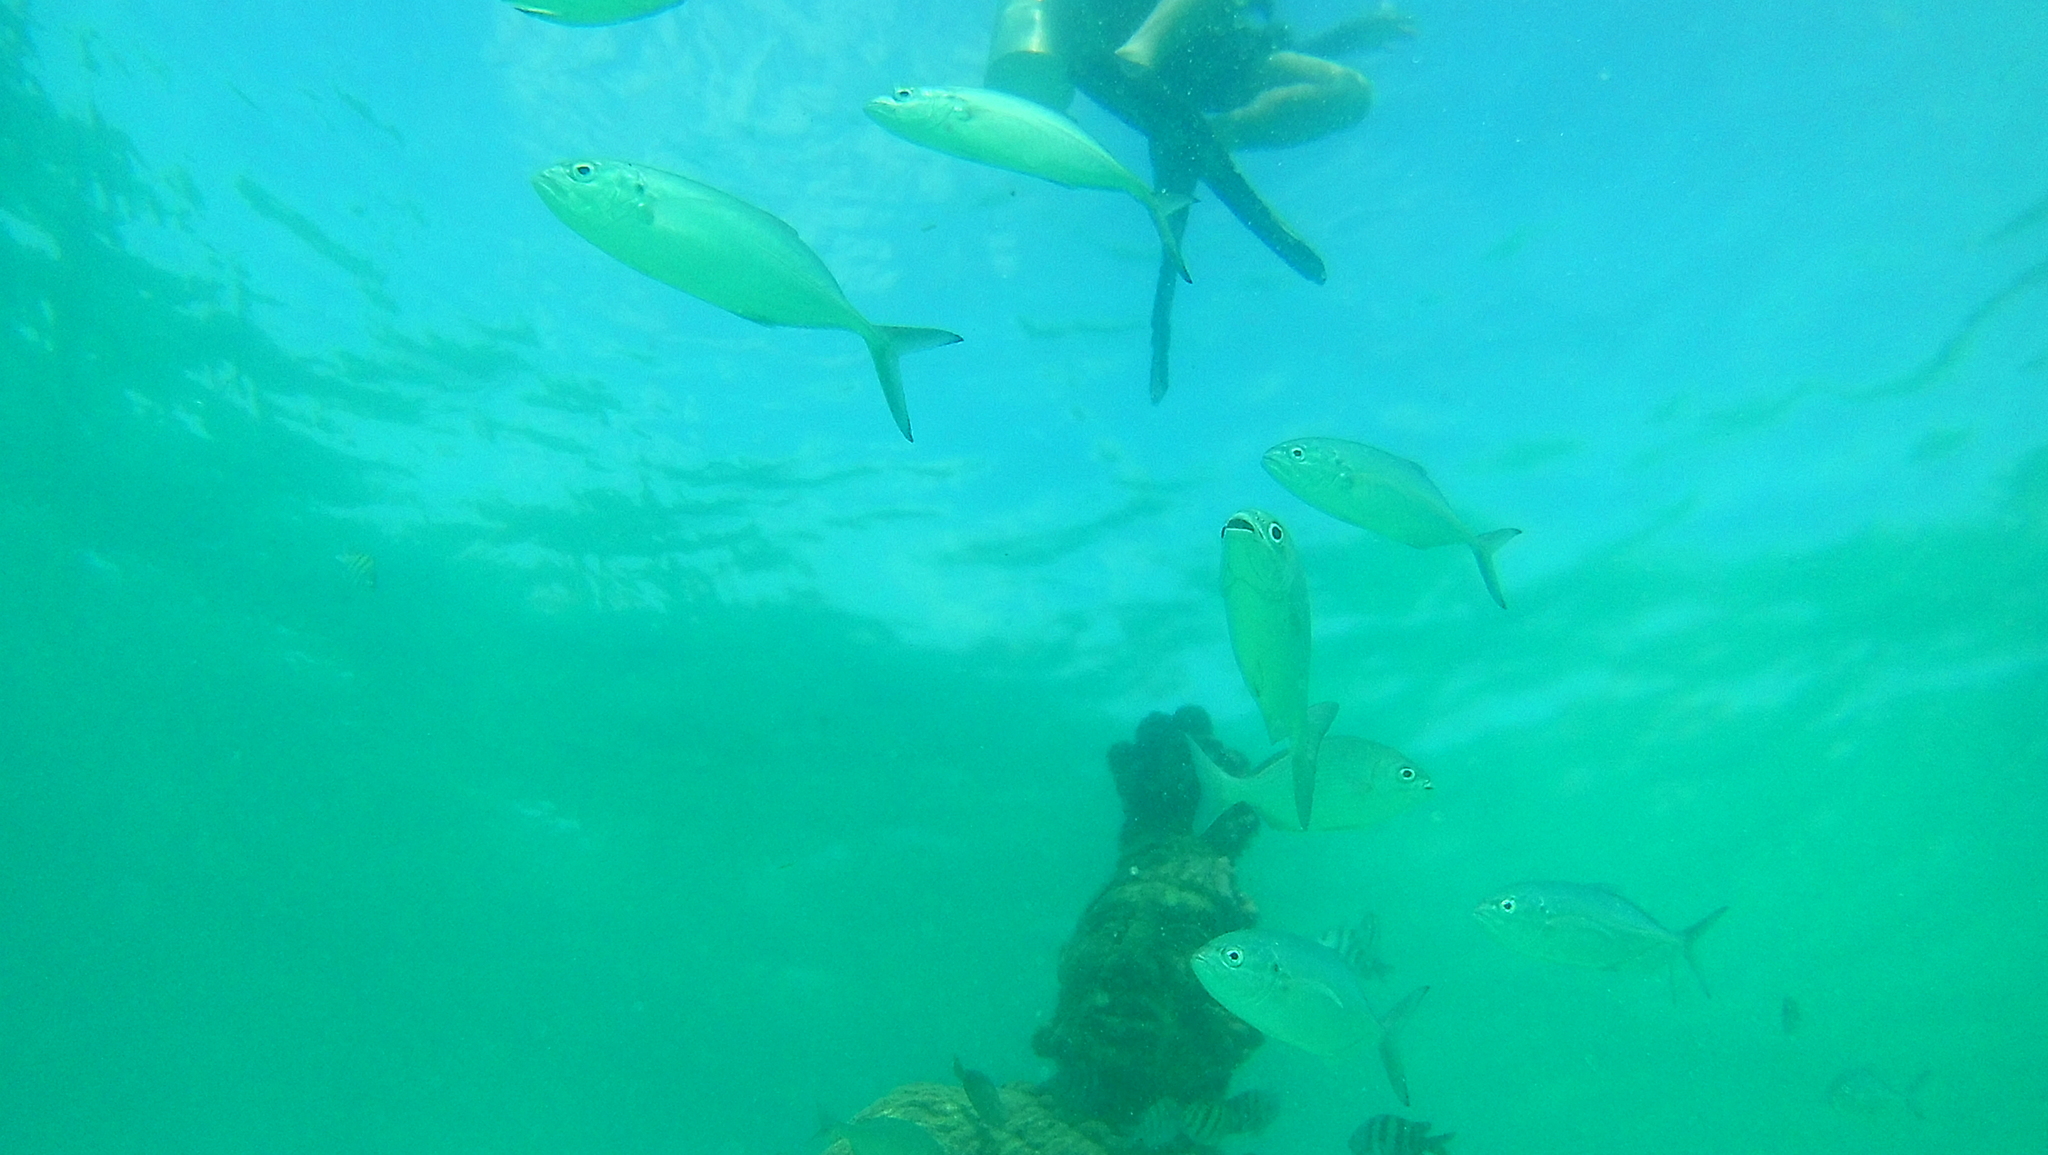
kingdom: Animalia
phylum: Chordata
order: Perciformes
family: Carangidae
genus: Caranx
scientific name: Caranx crysos
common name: Blue runner
